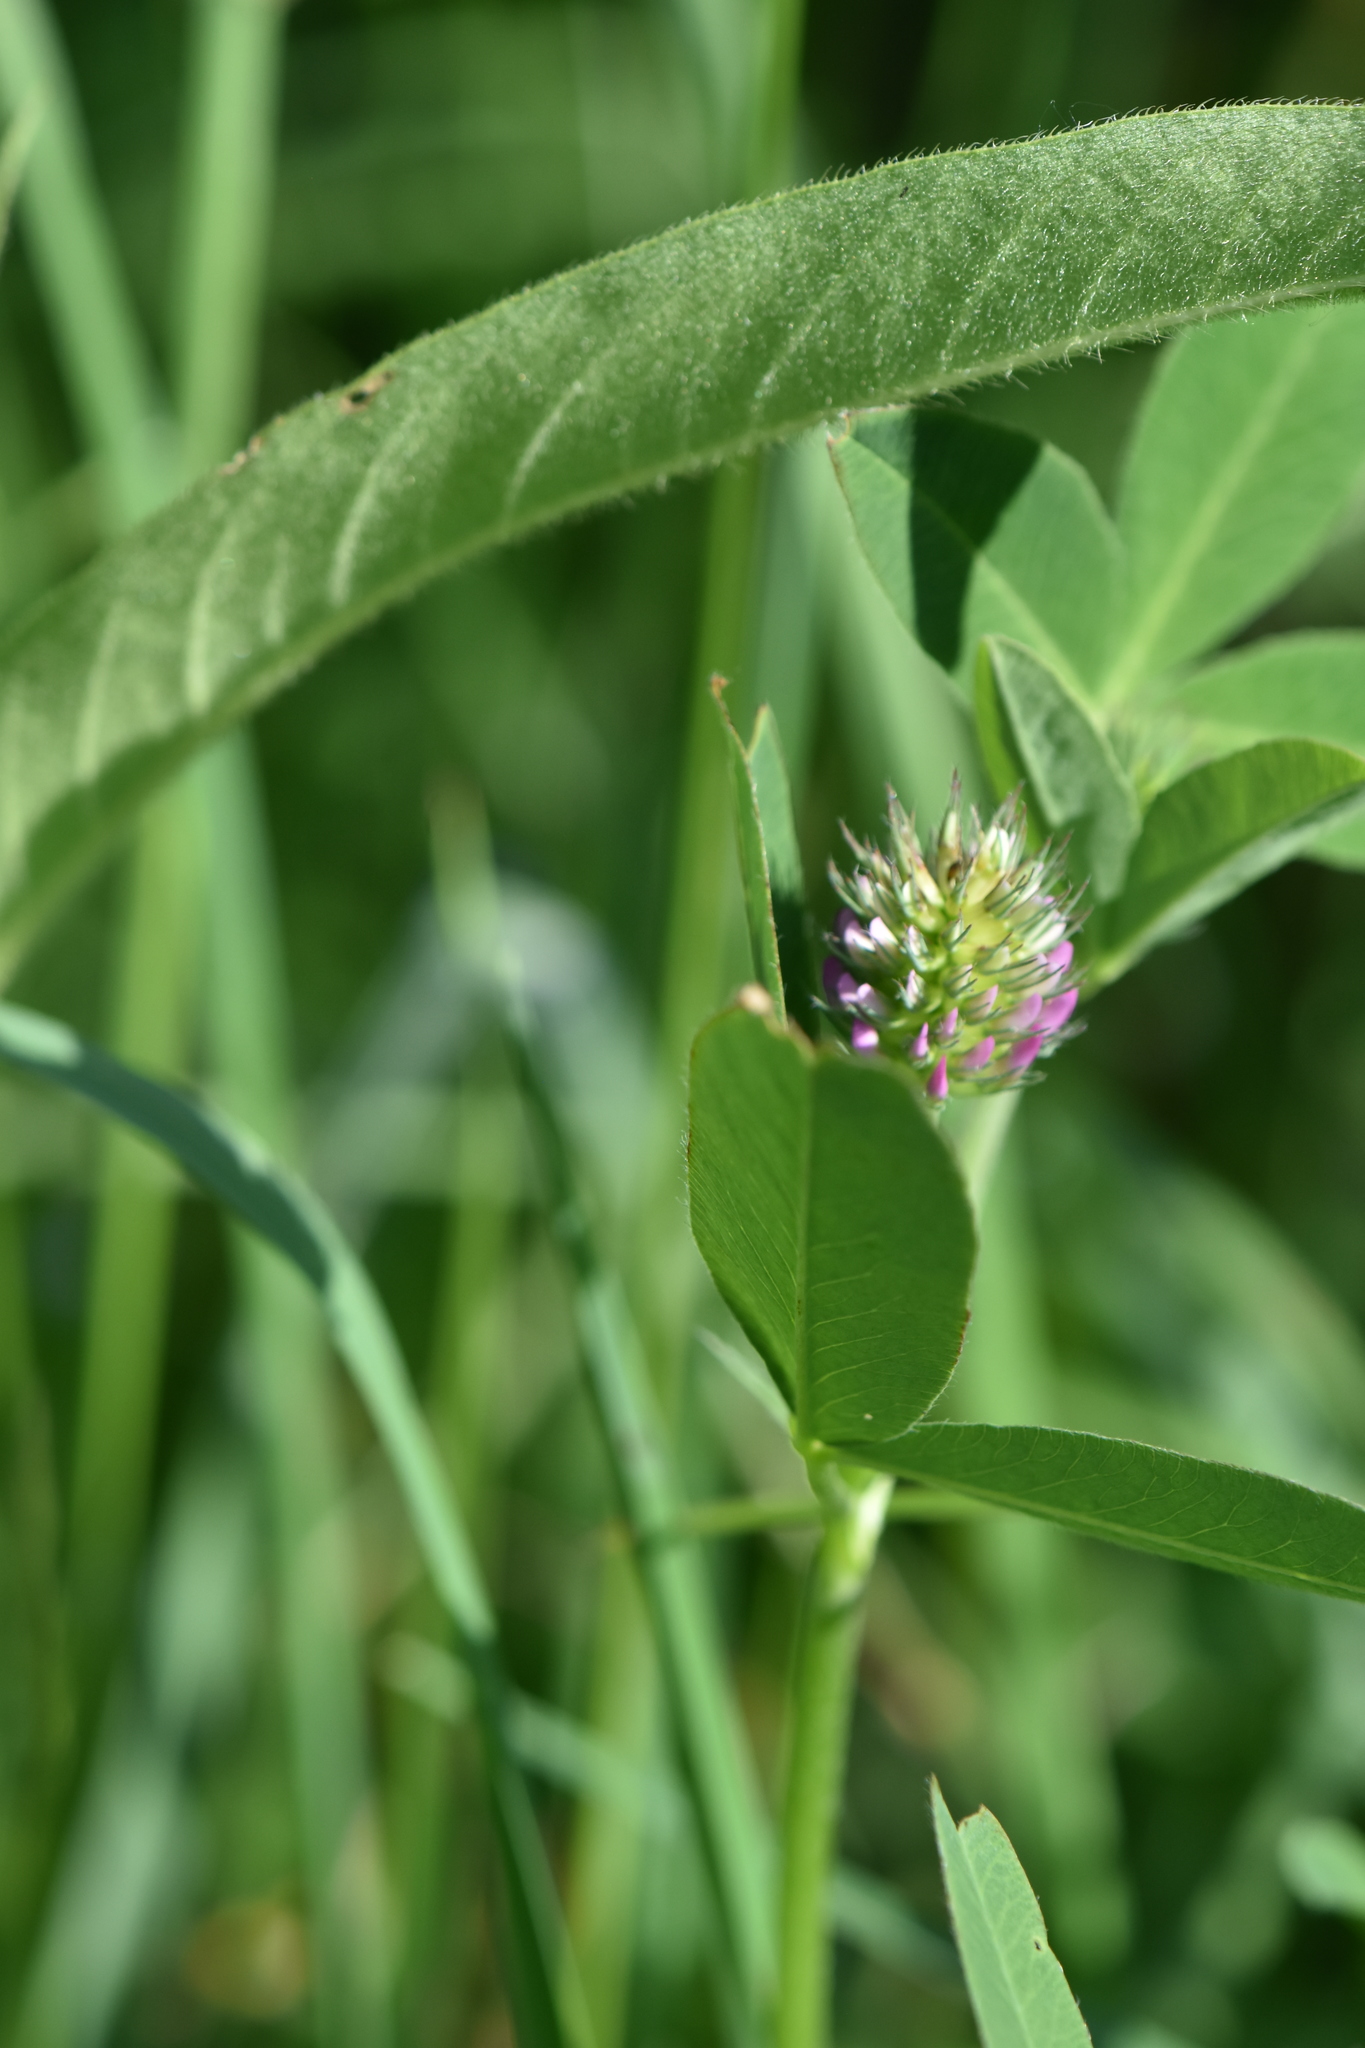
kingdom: Plantae
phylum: Tracheophyta
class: Magnoliopsida
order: Fabales
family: Fabaceae
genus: Trifolium
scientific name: Trifolium medium
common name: Zigzag clover
